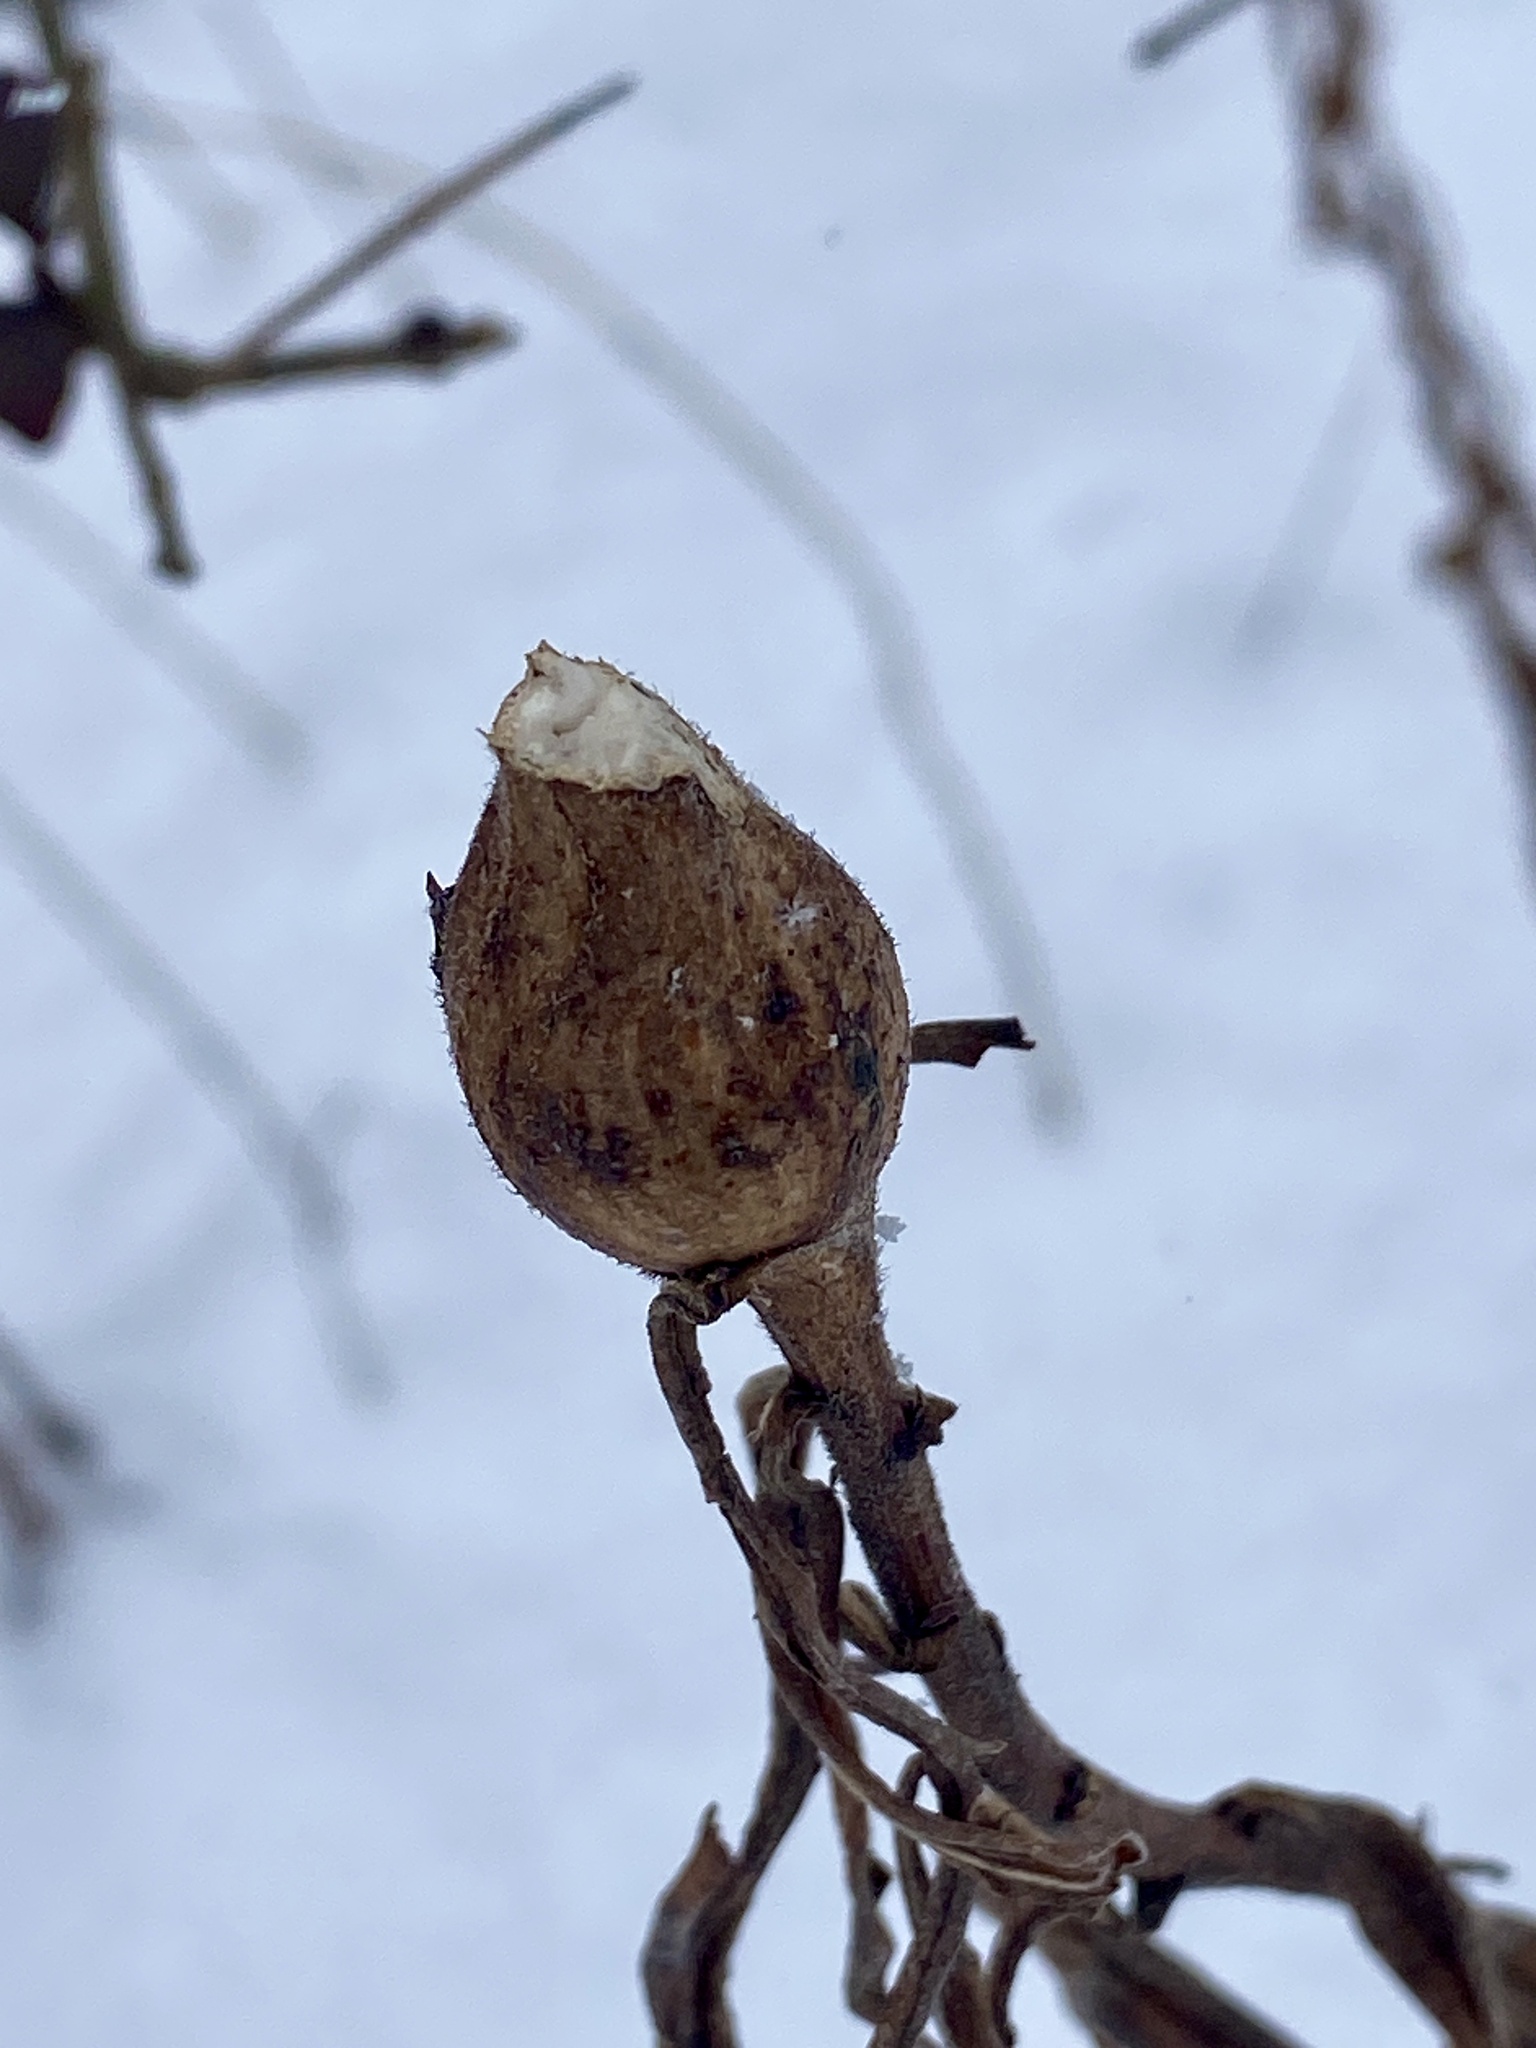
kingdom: Animalia
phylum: Arthropoda
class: Insecta
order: Diptera
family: Tephritidae
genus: Eurosta
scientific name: Eurosta solidaginis
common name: Goldenrod gall fly
